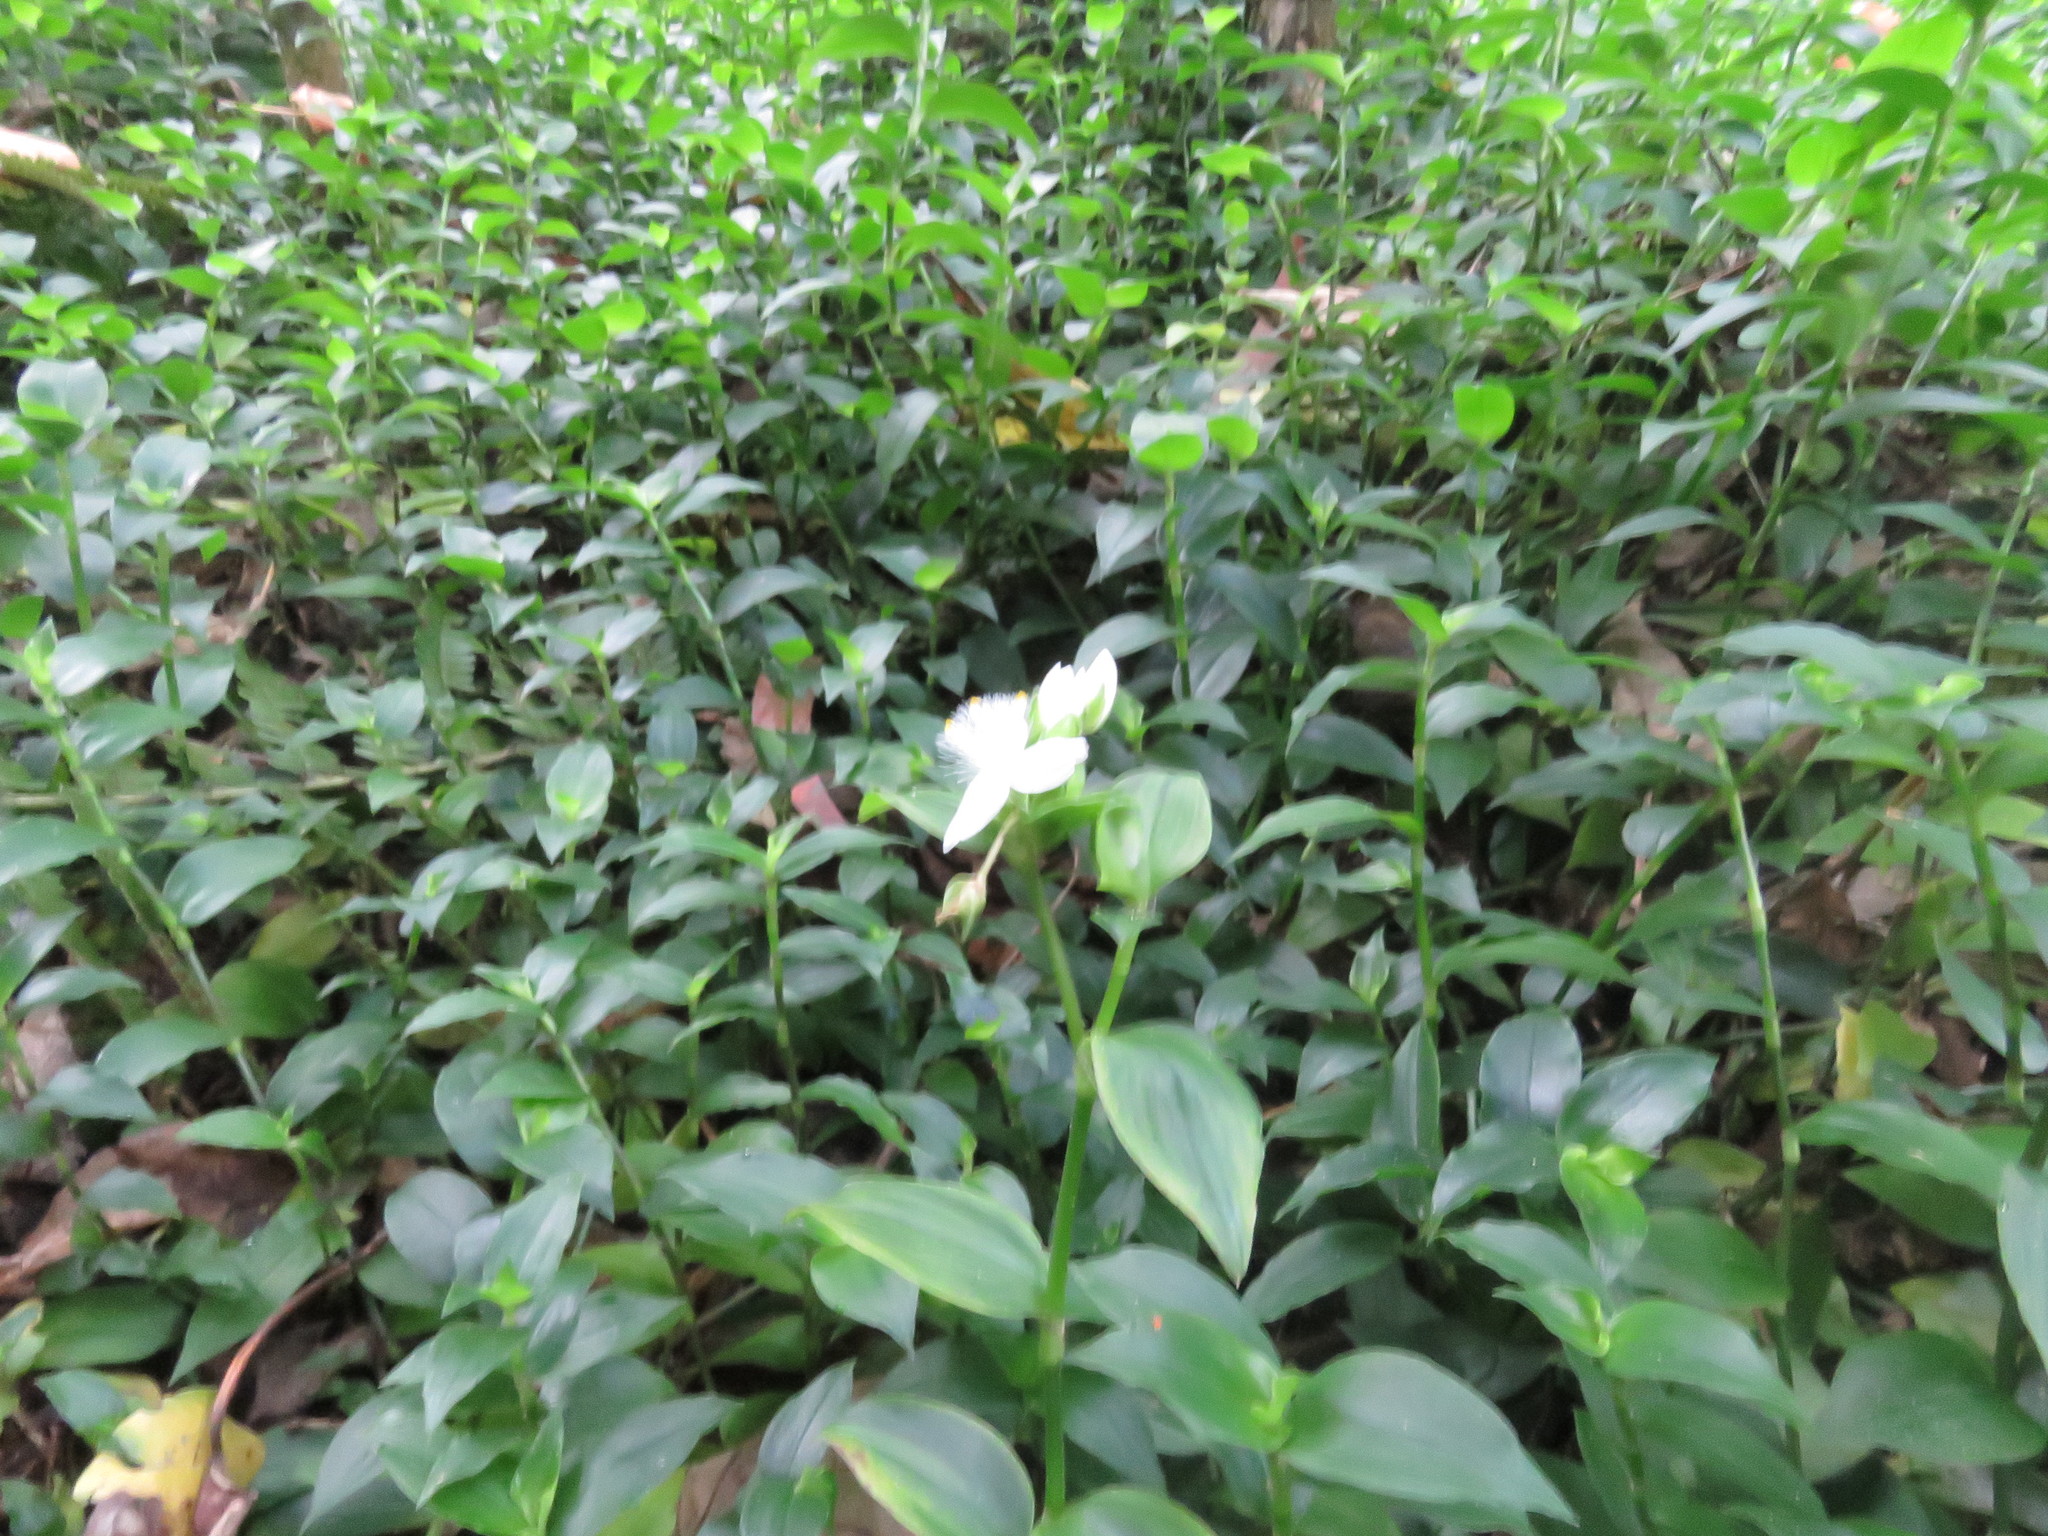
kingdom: Plantae
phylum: Tracheophyta
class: Liliopsida
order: Commelinales
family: Commelinaceae
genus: Tradescantia
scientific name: Tradescantia fluminensis
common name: Wandering-jew
